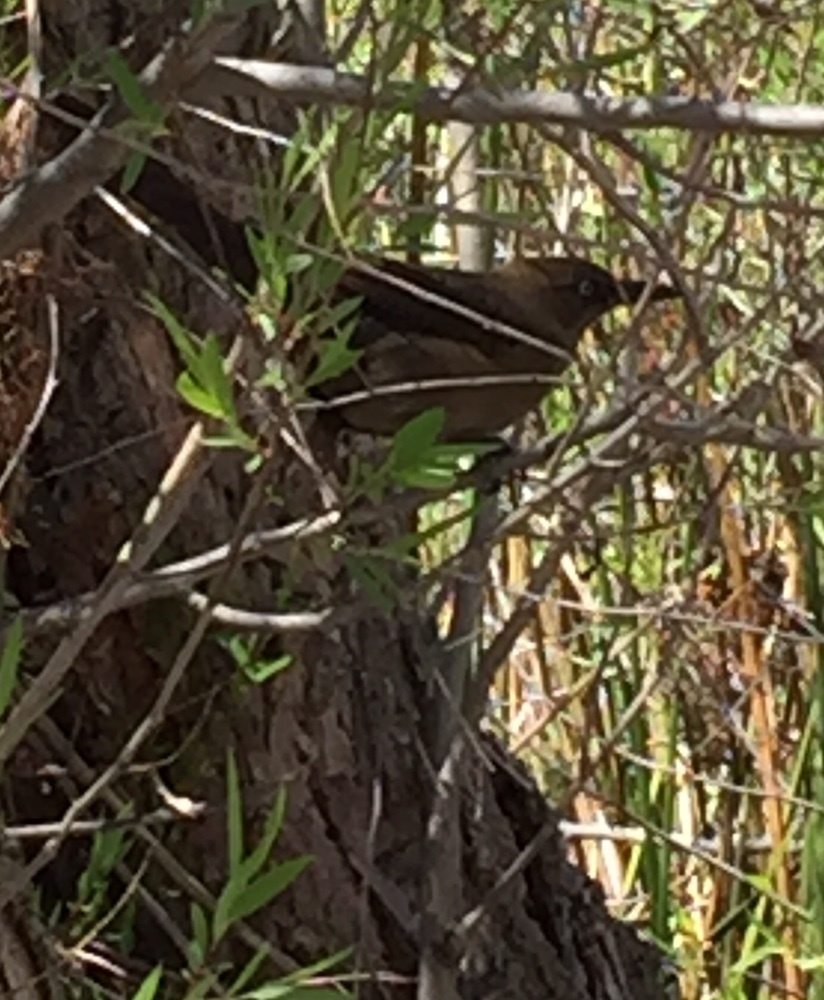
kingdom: Animalia
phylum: Chordata
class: Aves
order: Passeriformes
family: Icteridae
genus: Quiscalus
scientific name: Quiscalus mexicanus
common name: Great-tailed grackle
